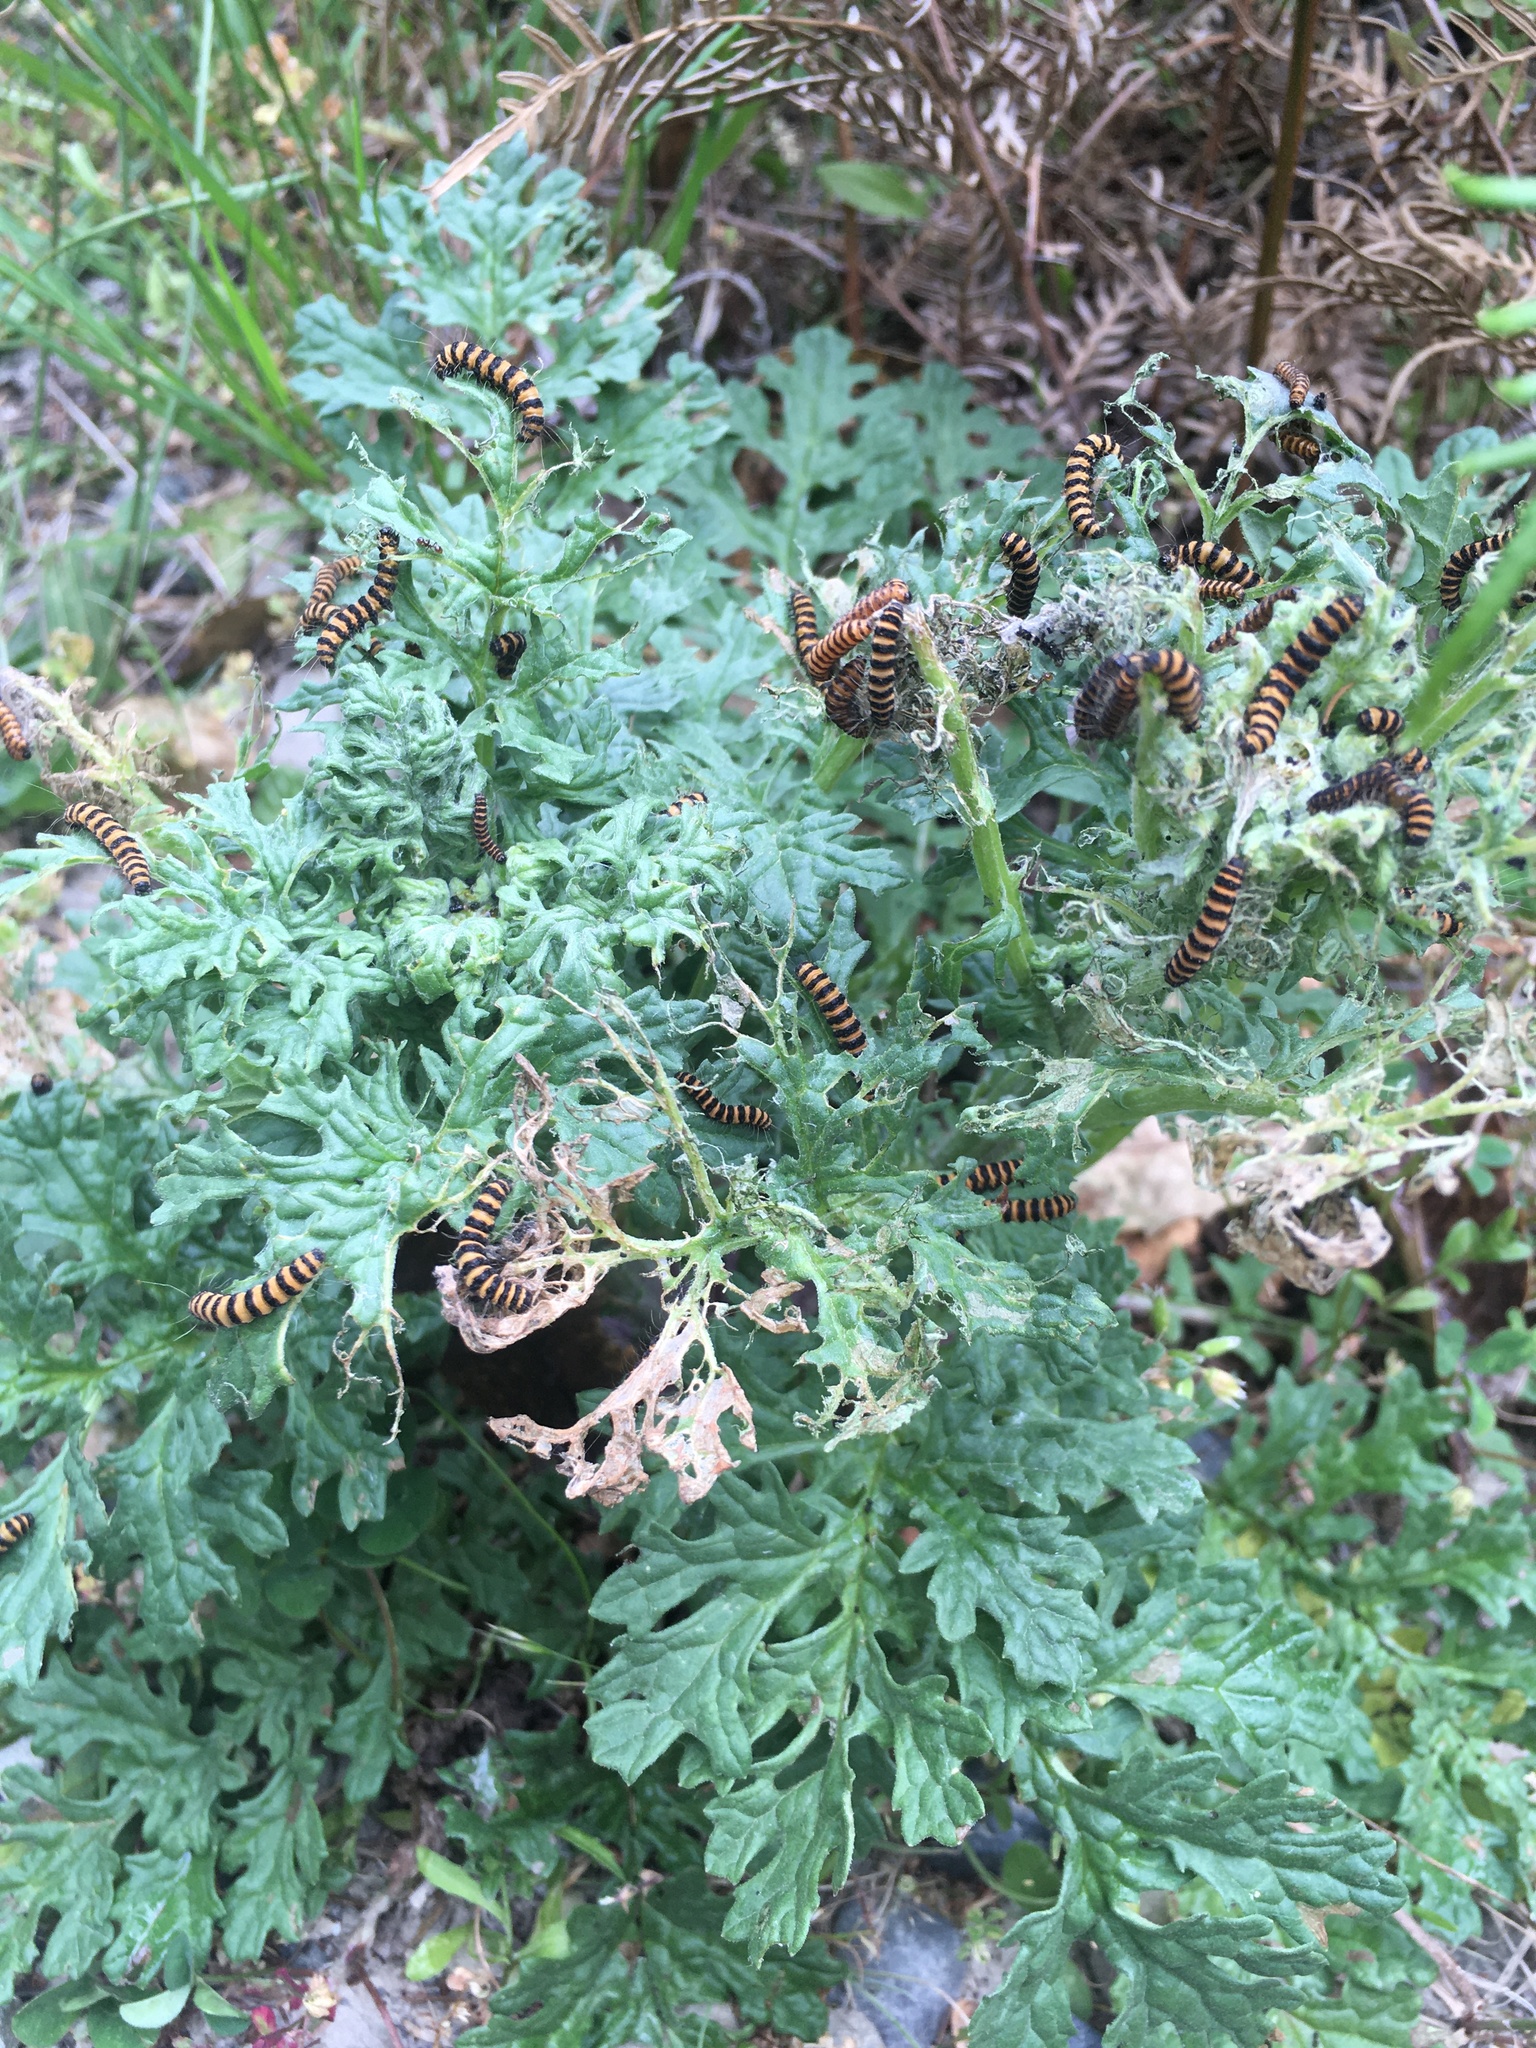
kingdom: Plantae
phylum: Tracheophyta
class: Magnoliopsida
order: Asterales
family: Asteraceae
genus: Jacobaea
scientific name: Jacobaea vulgaris
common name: Stinking willie
